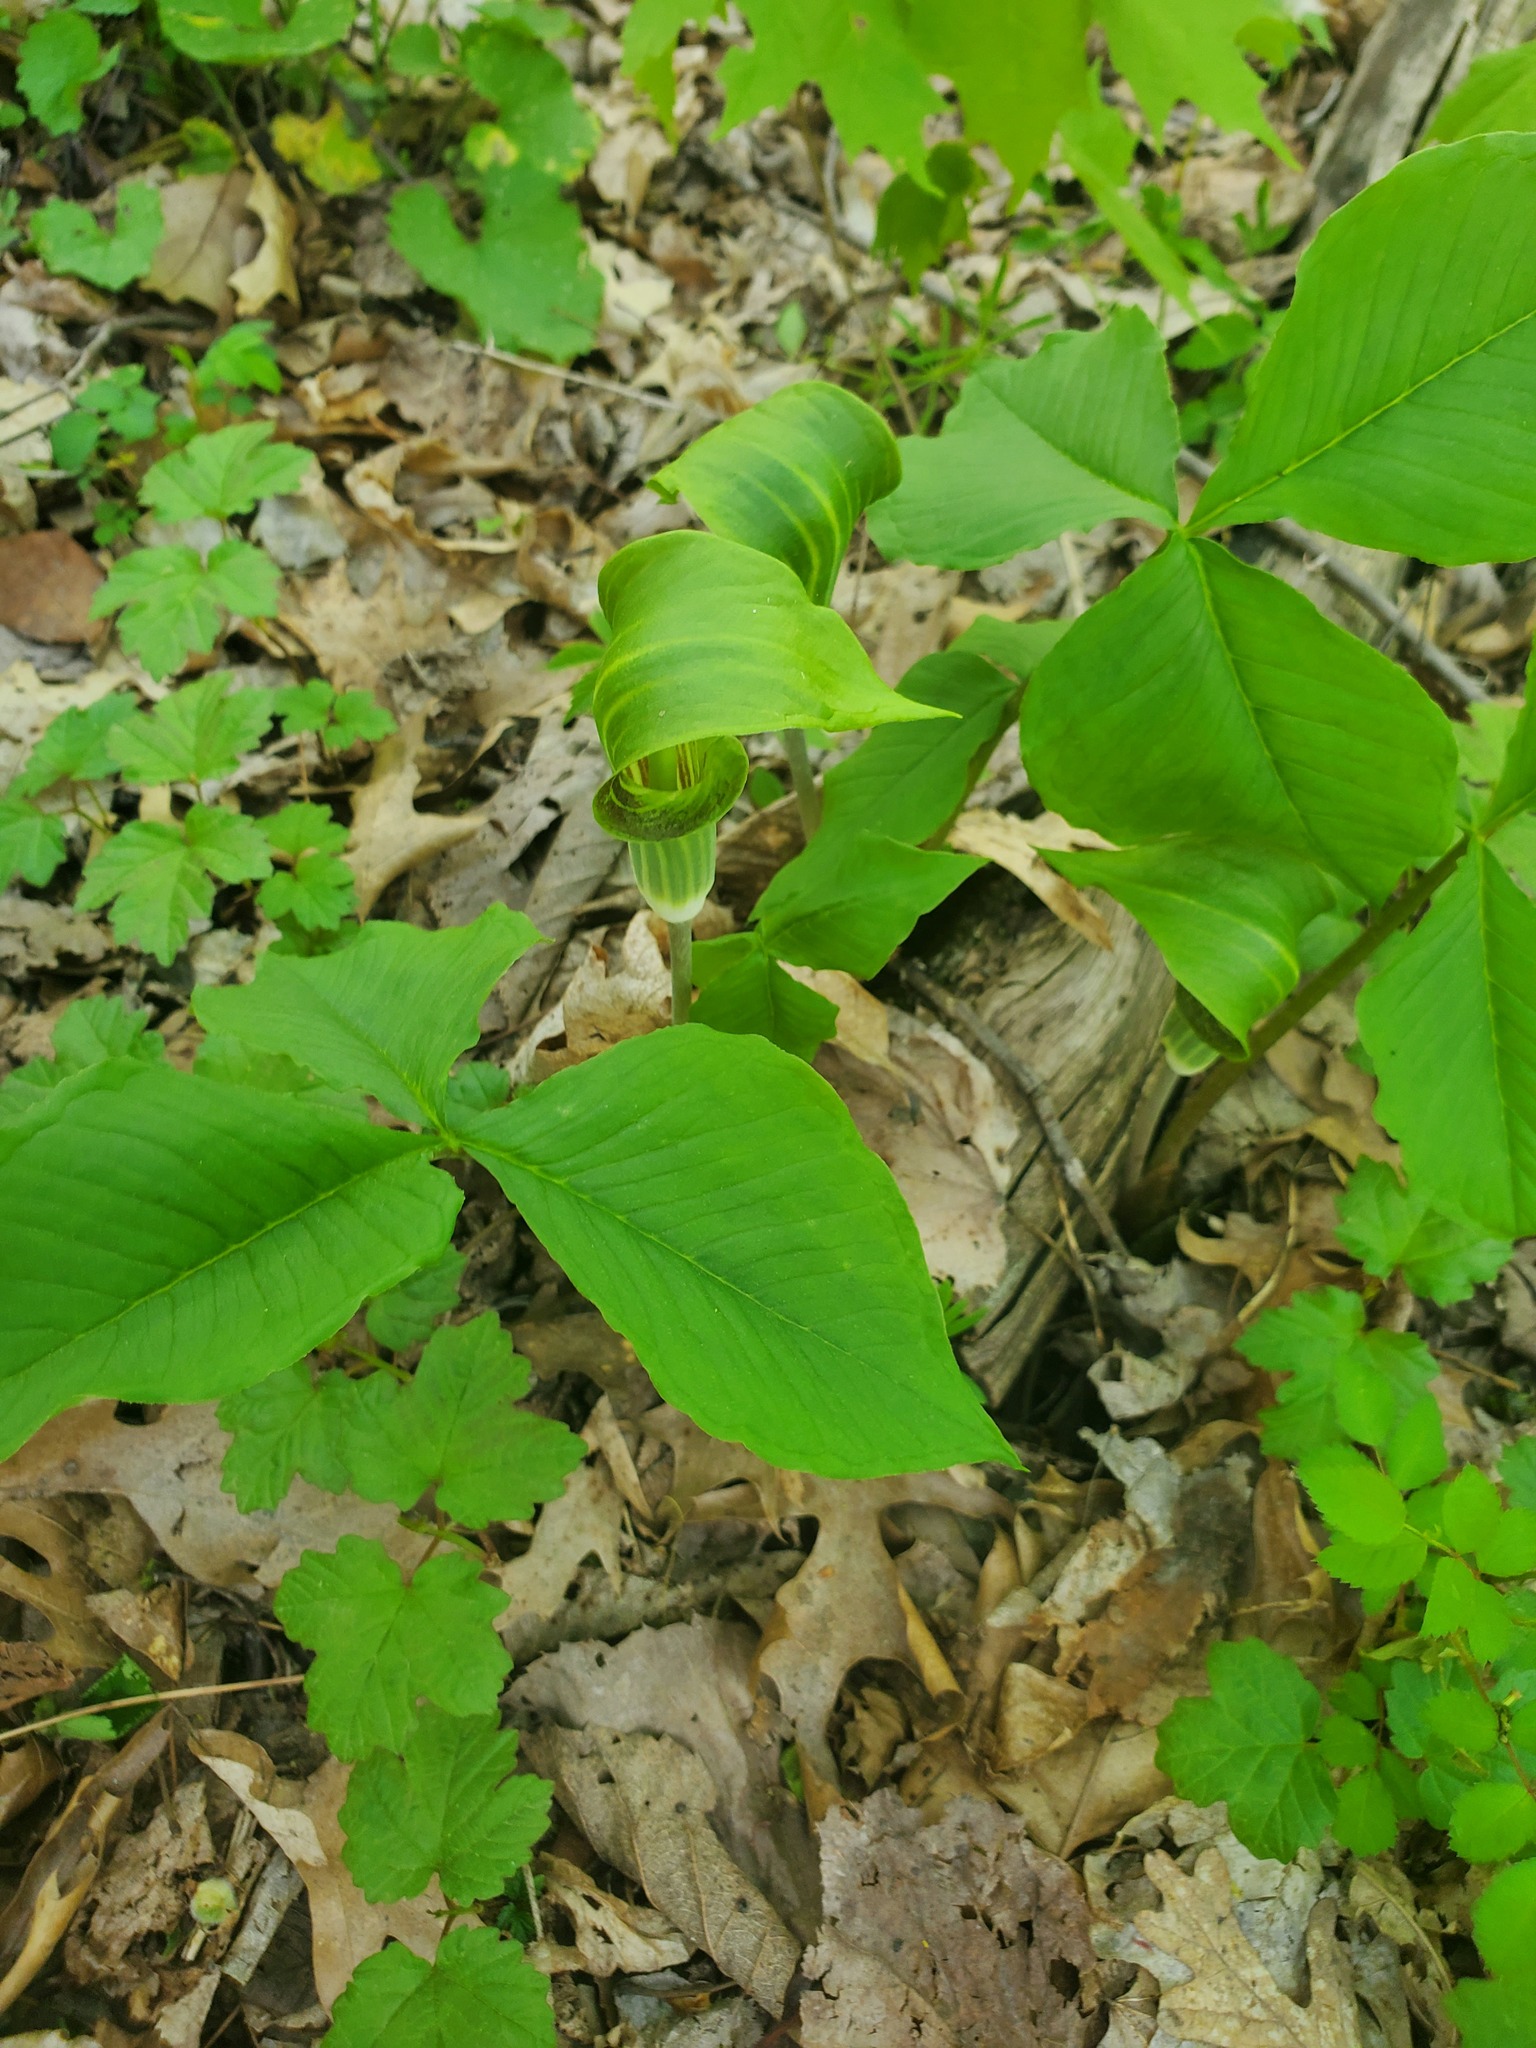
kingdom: Plantae
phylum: Tracheophyta
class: Liliopsida
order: Alismatales
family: Araceae
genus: Arisaema
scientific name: Arisaema triphyllum
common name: Jack-in-the-pulpit
